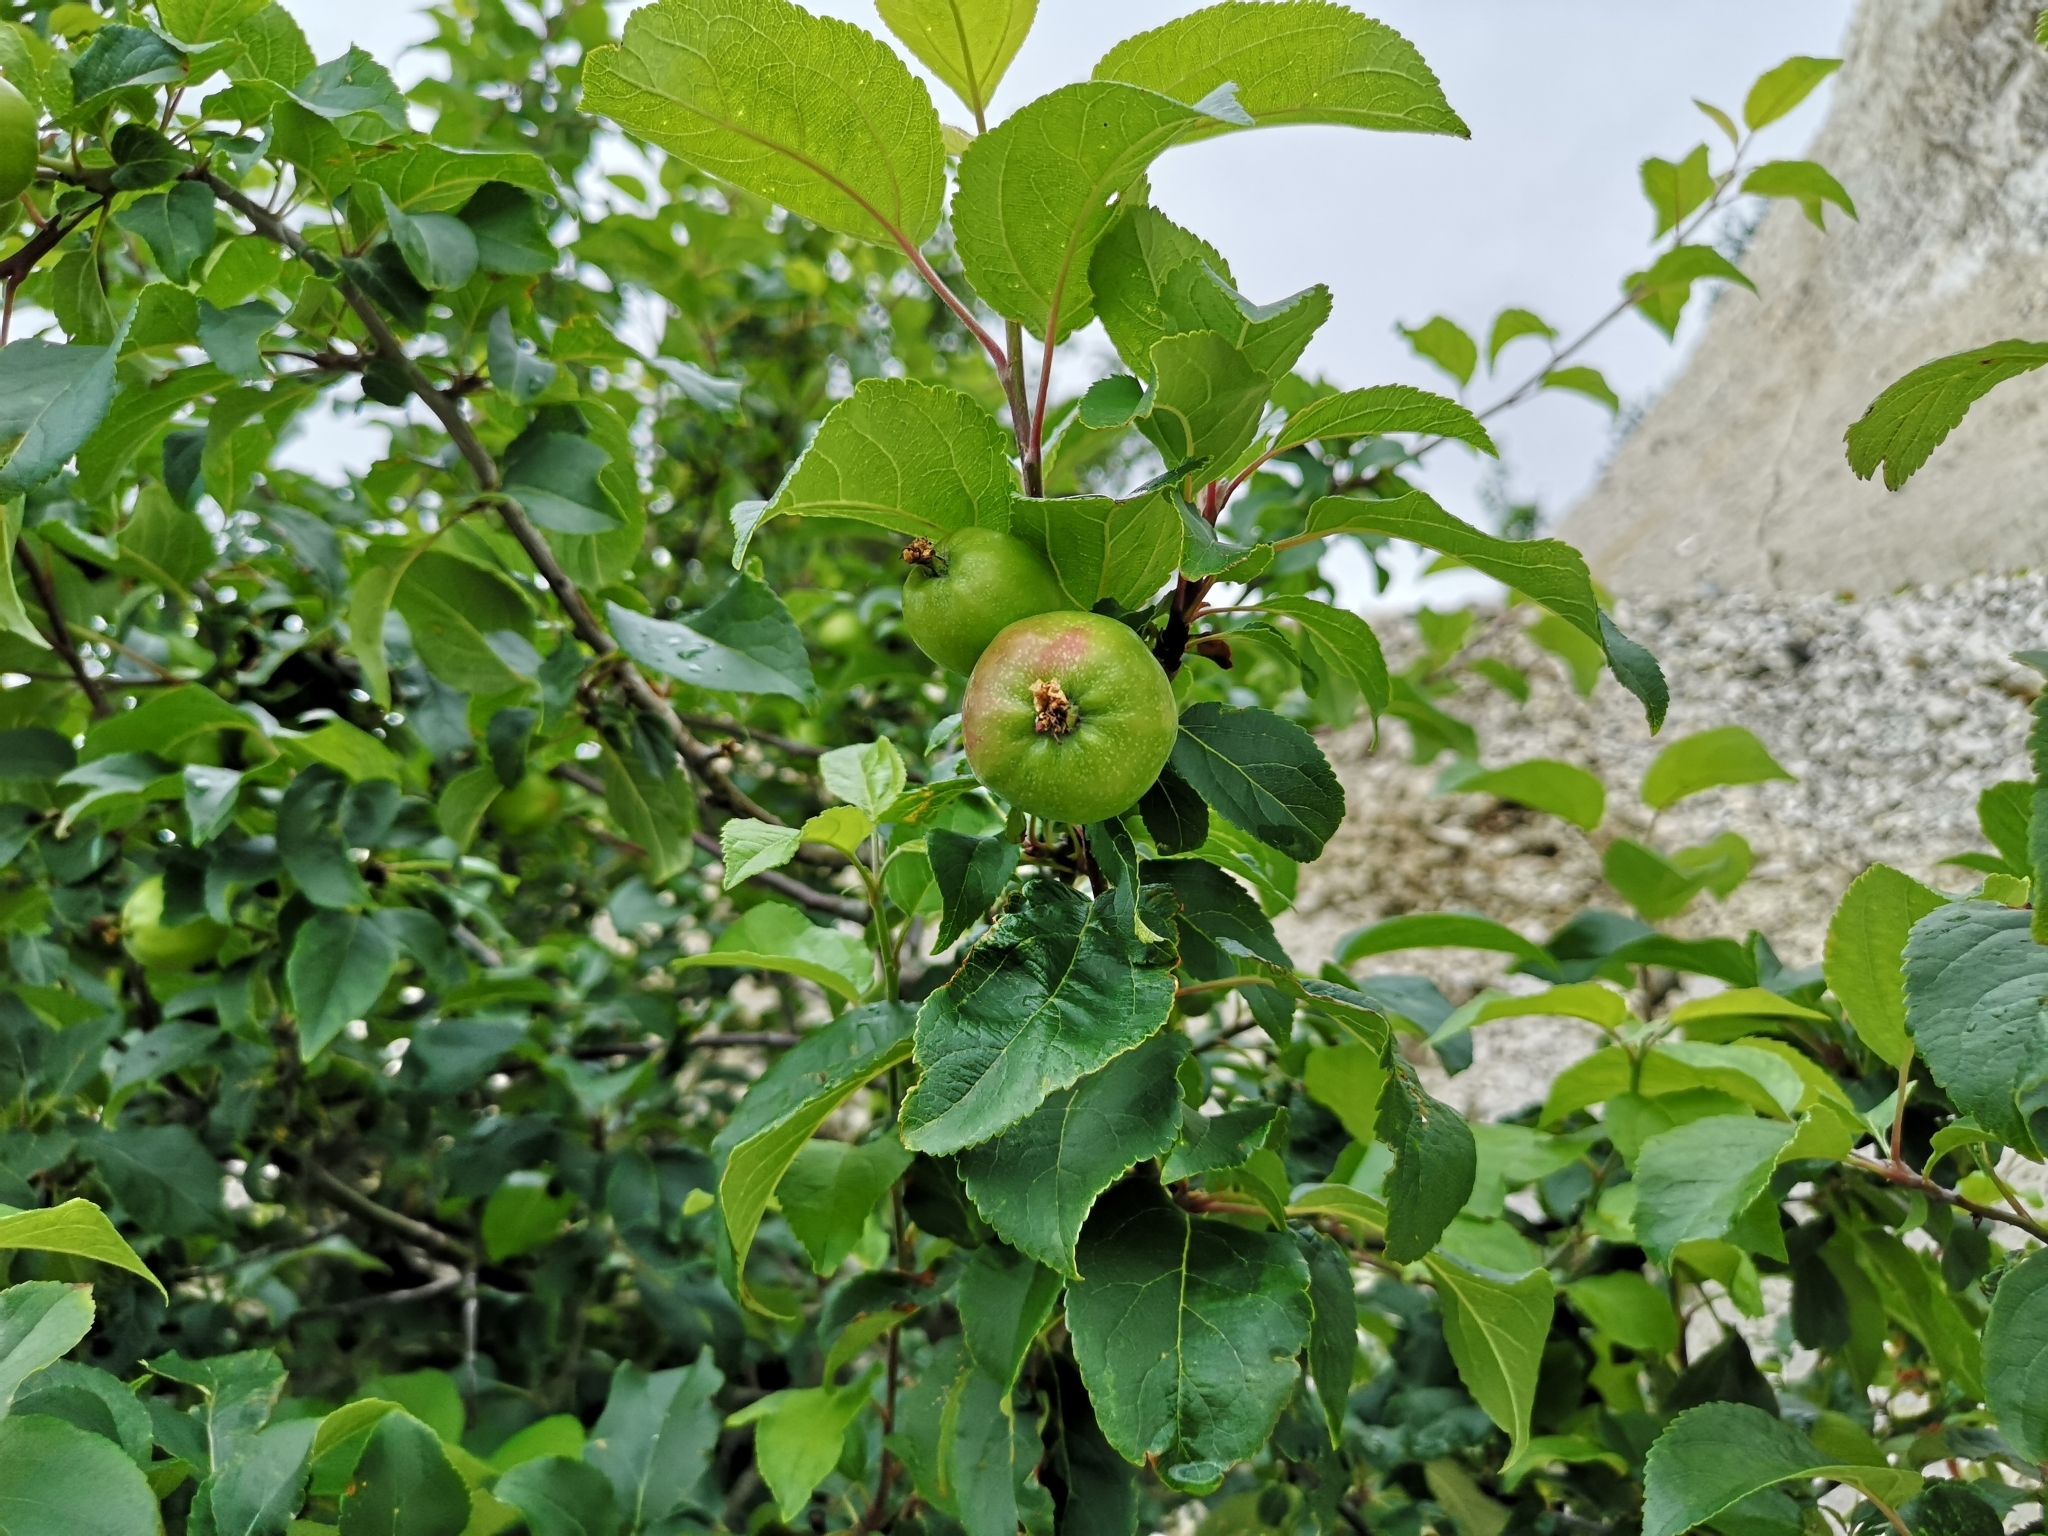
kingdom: Plantae
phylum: Tracheophyta
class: Magnoliopsida
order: Rosales
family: Rosaceae
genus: Malus
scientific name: Malus sylvestris
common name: Crab apple
